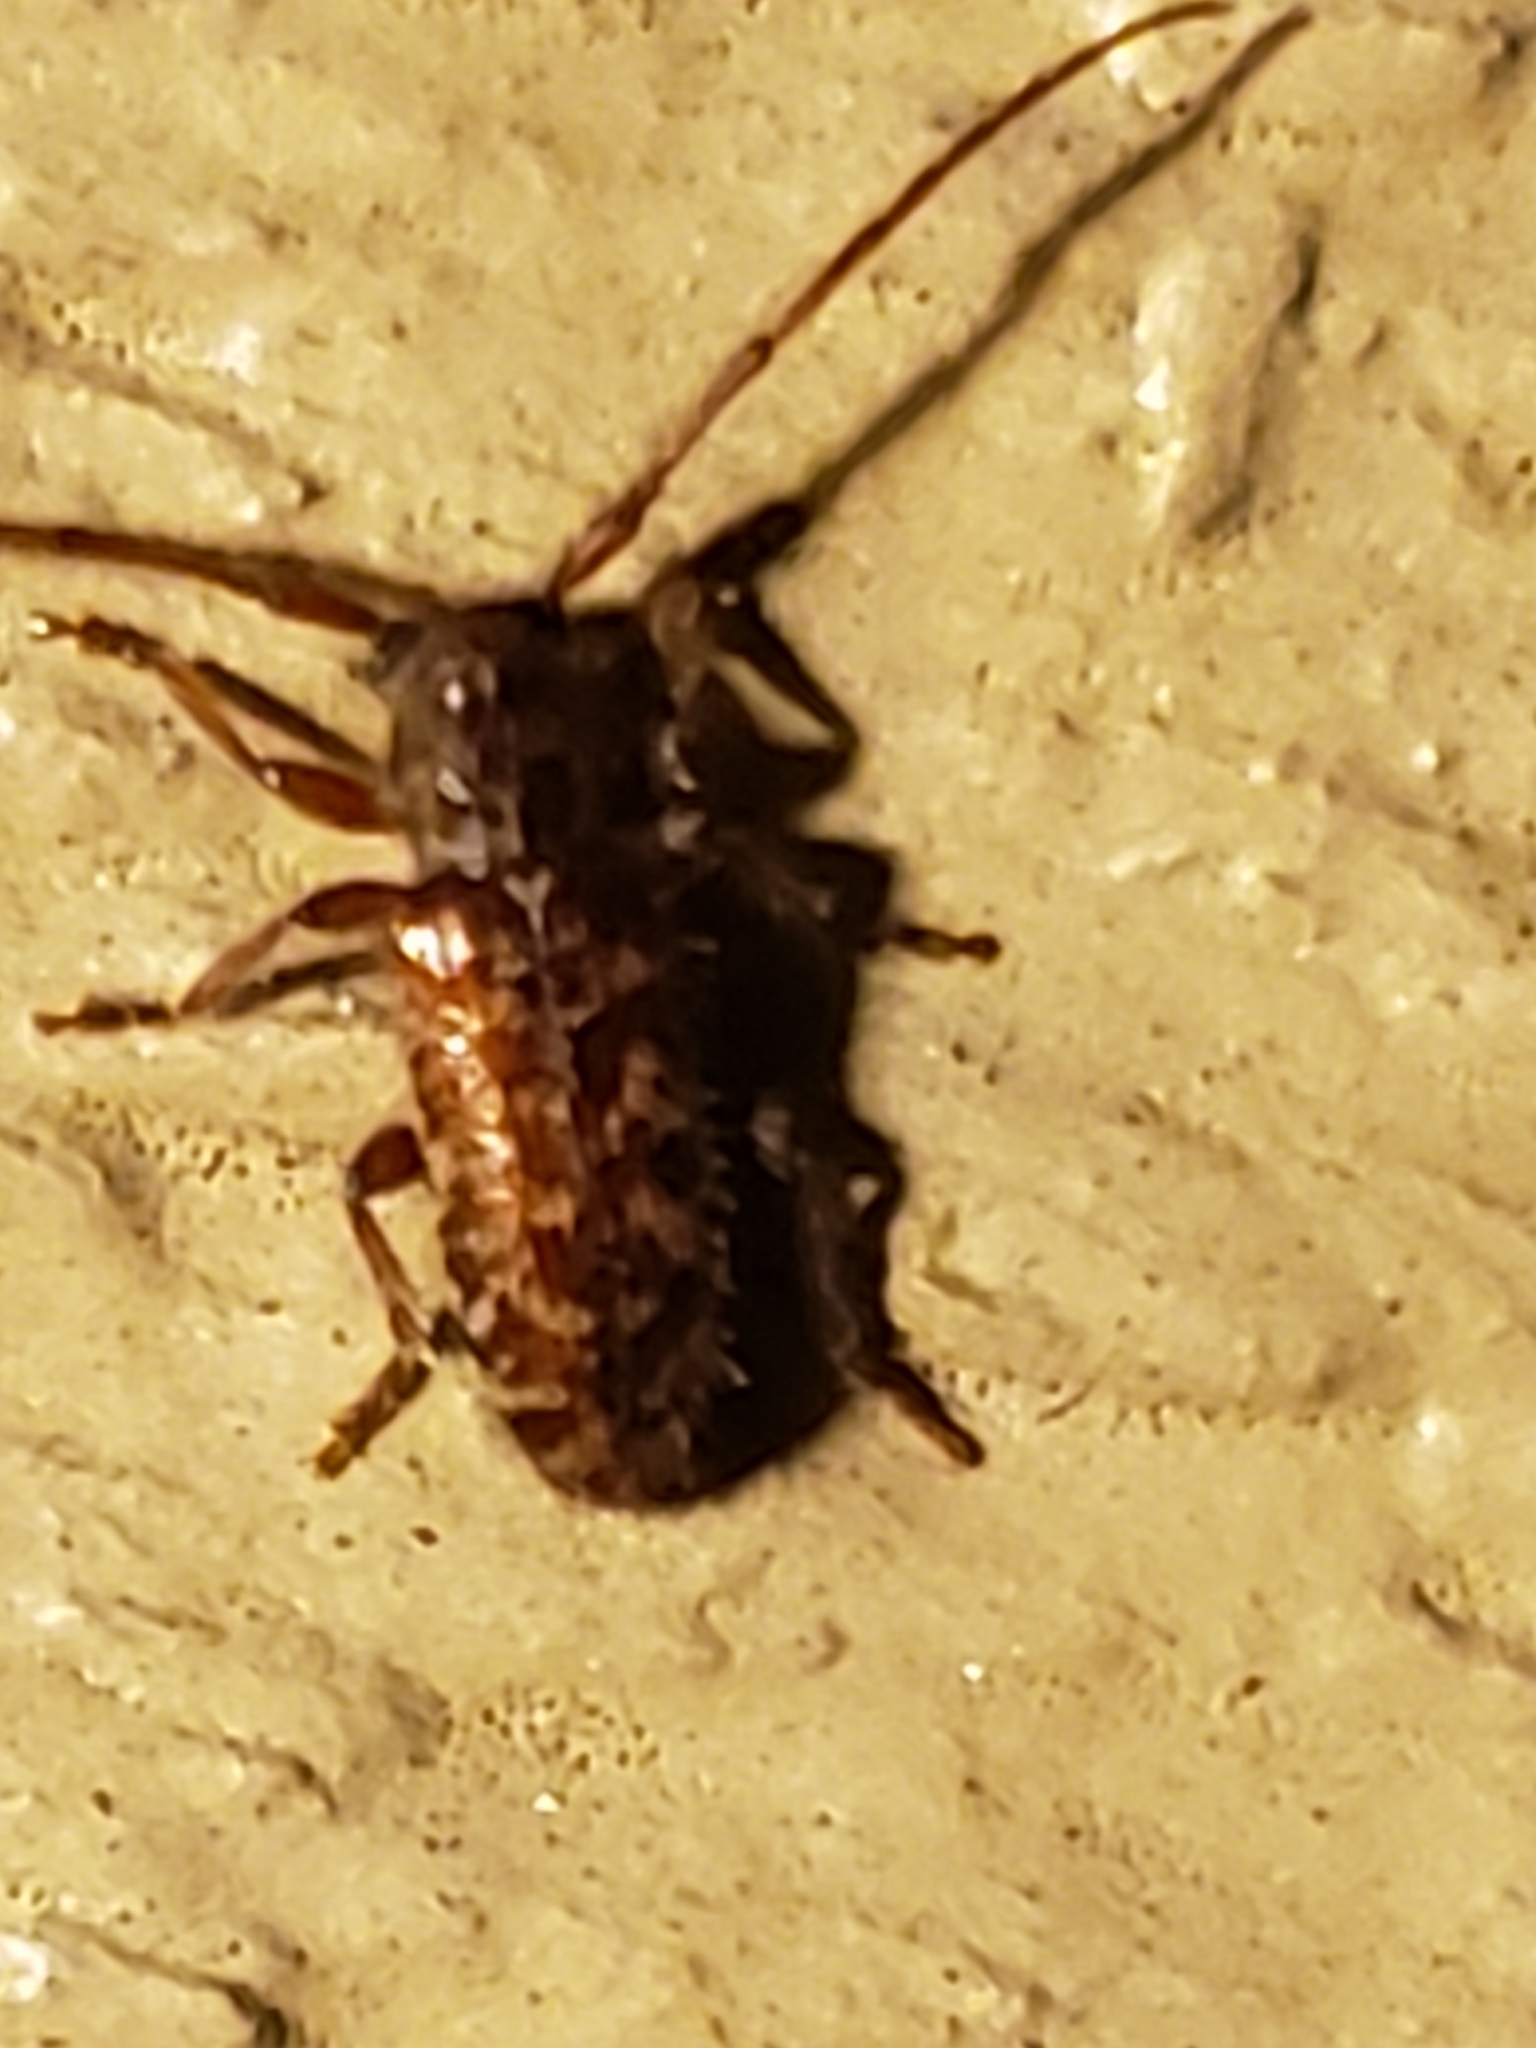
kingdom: Animalia
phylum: Arthropoda
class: Insecta
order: Coleoptera
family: Cerambycidae
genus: Eupogonius
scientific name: Eupogonius tomentosus
